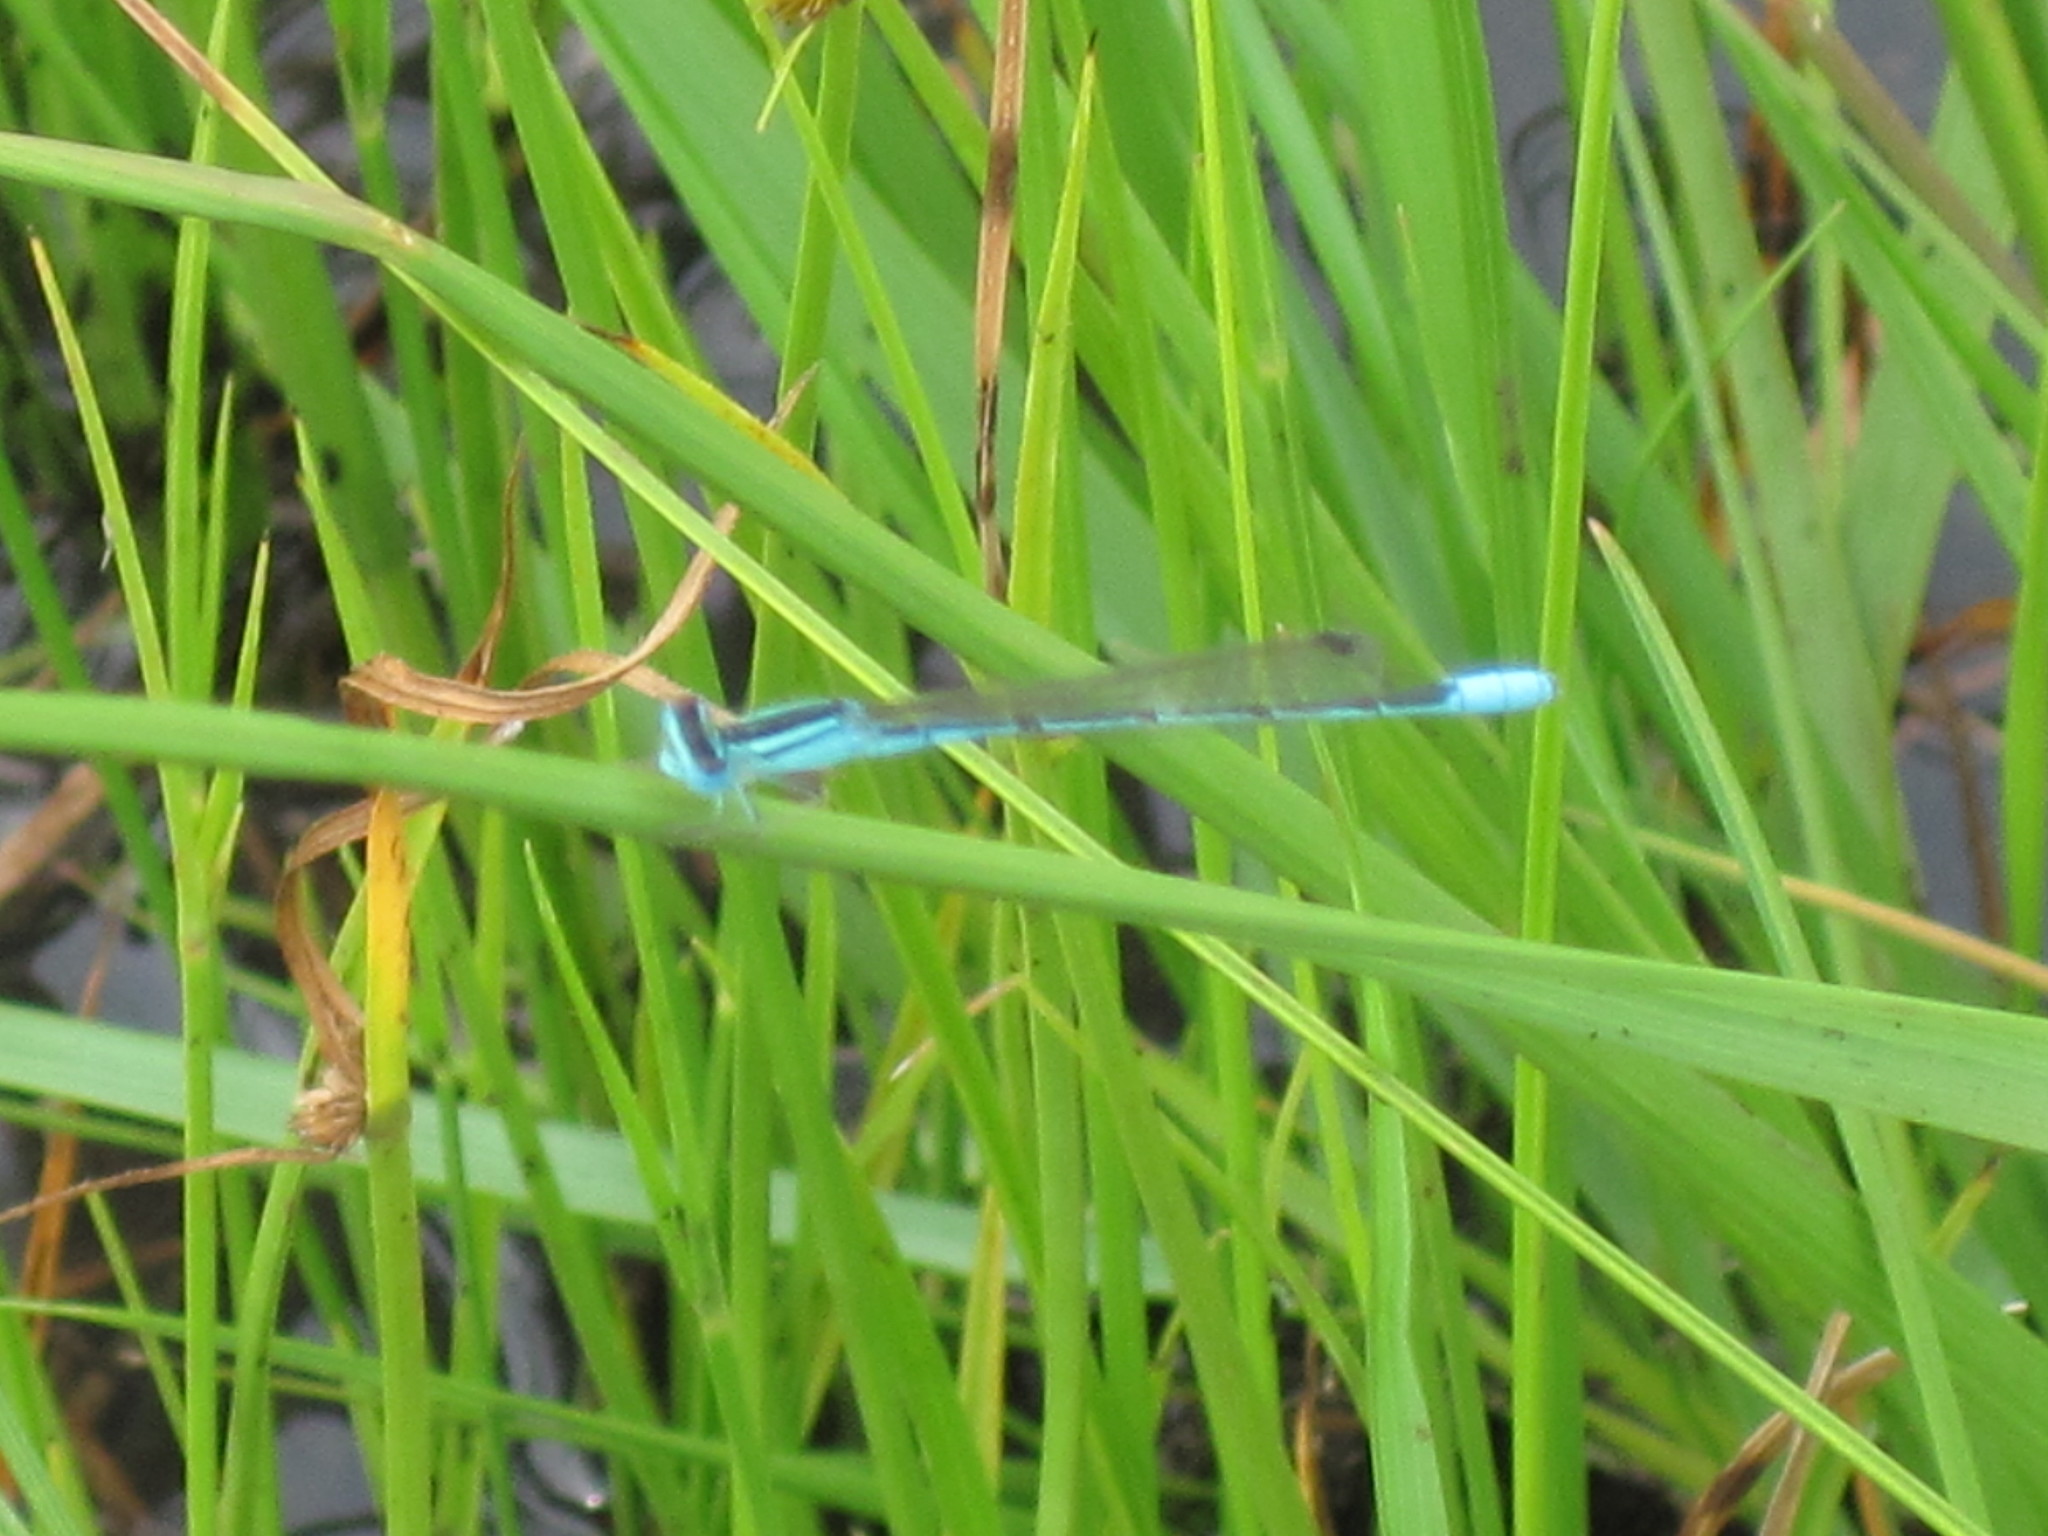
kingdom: Animalia
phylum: Arthropoda
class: Insecta
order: Odonata
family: Coenagrionidae
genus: Africallagma
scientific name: Africallagma glaucum
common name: Swamp bluet
